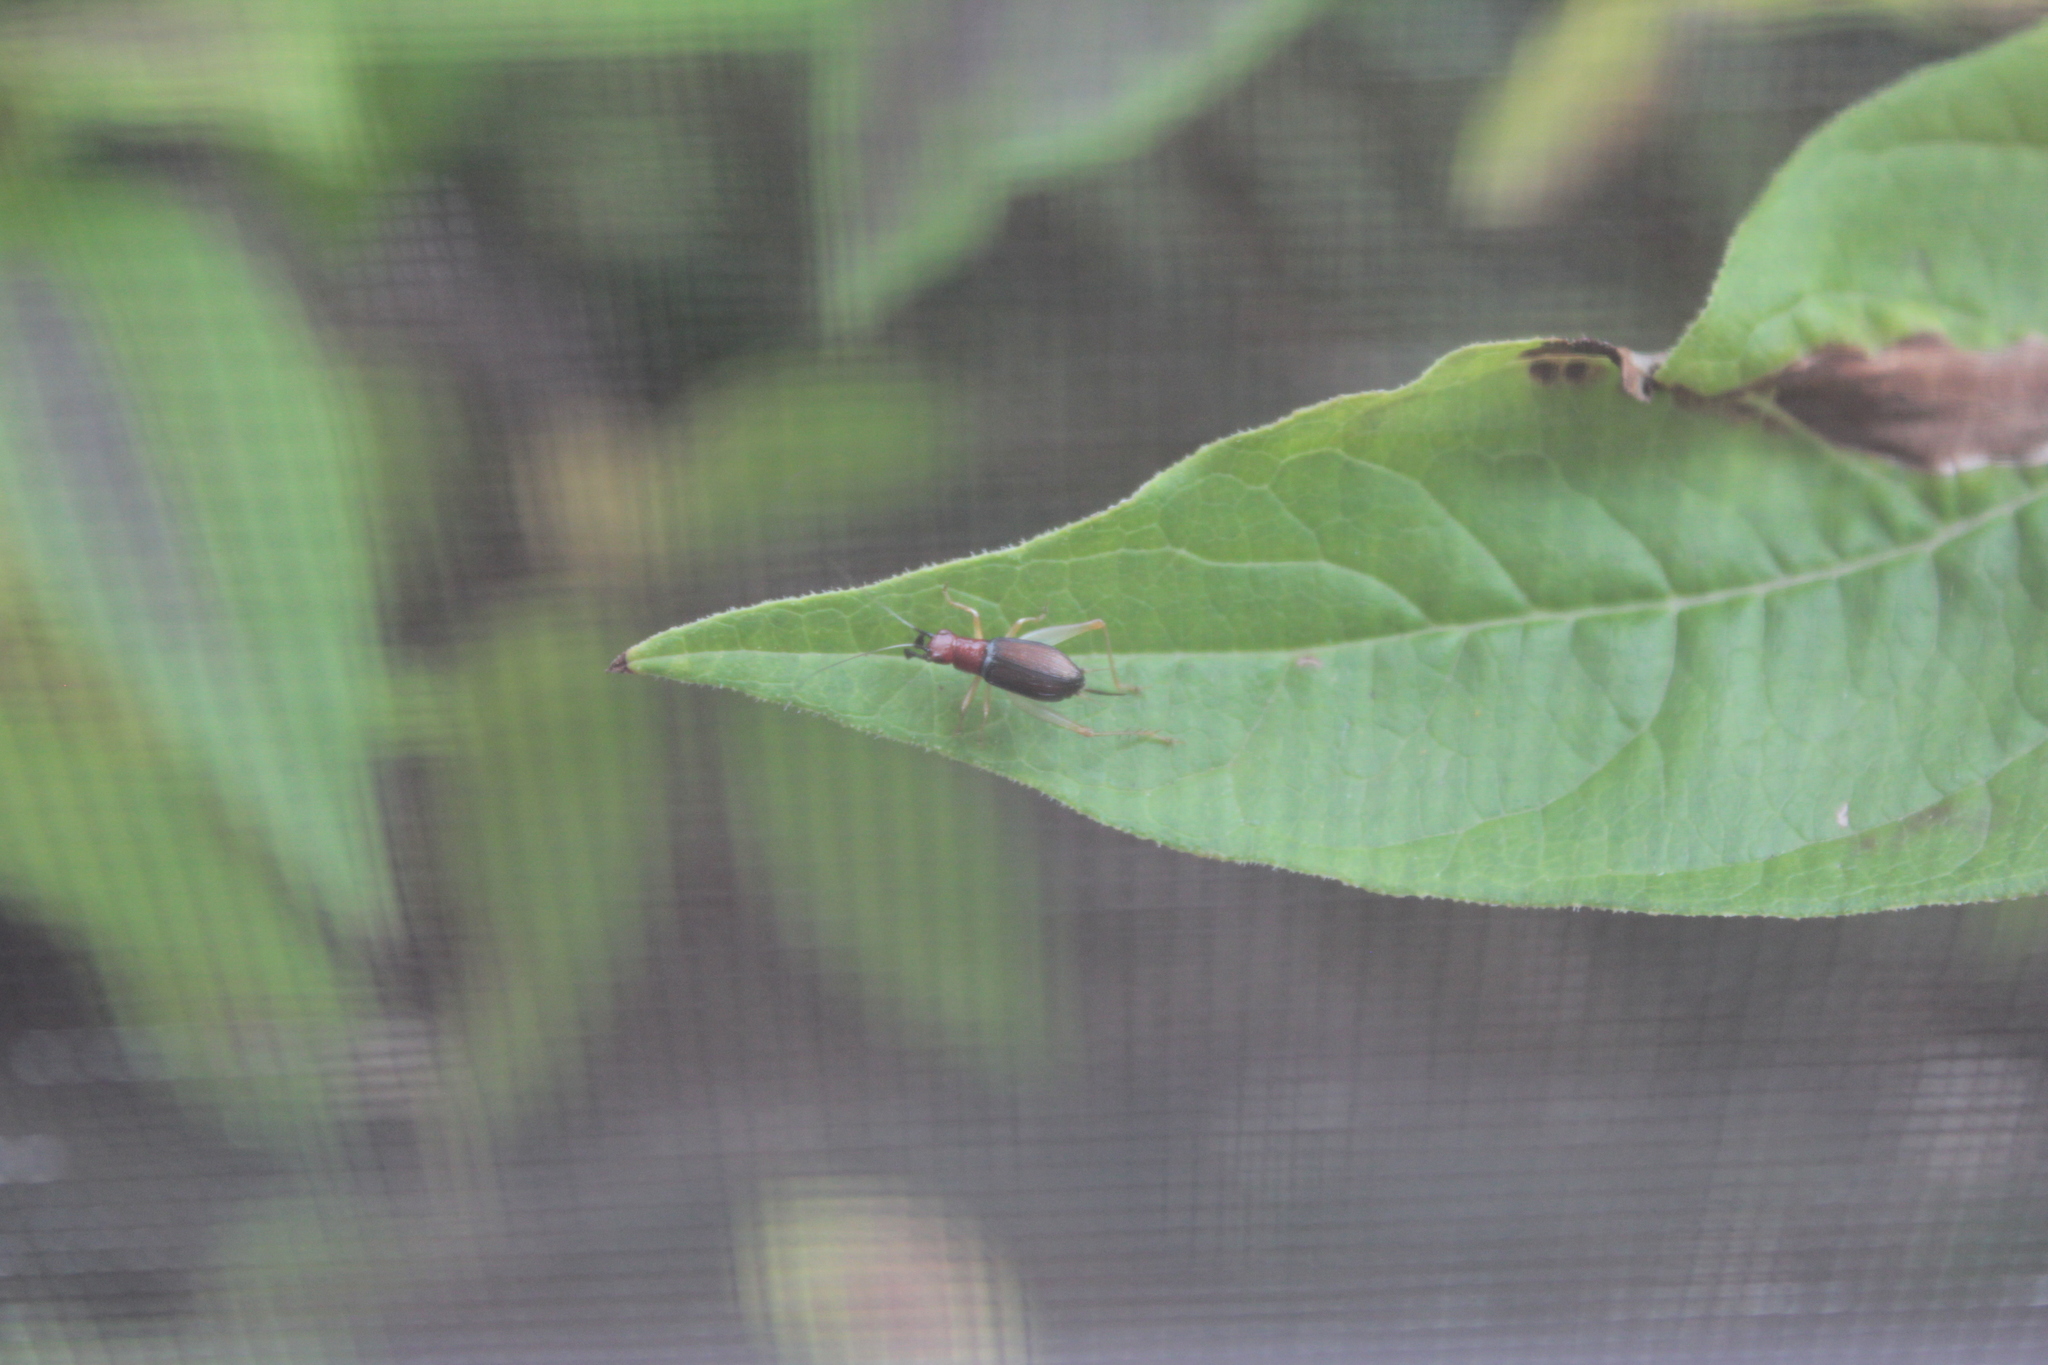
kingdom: Animalia
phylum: Arthropoda
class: Insecta
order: Orthoptera
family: Trigonidiidae
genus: Phyllopalpus
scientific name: Phyllopalpus pulchellus
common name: Handsome trig
